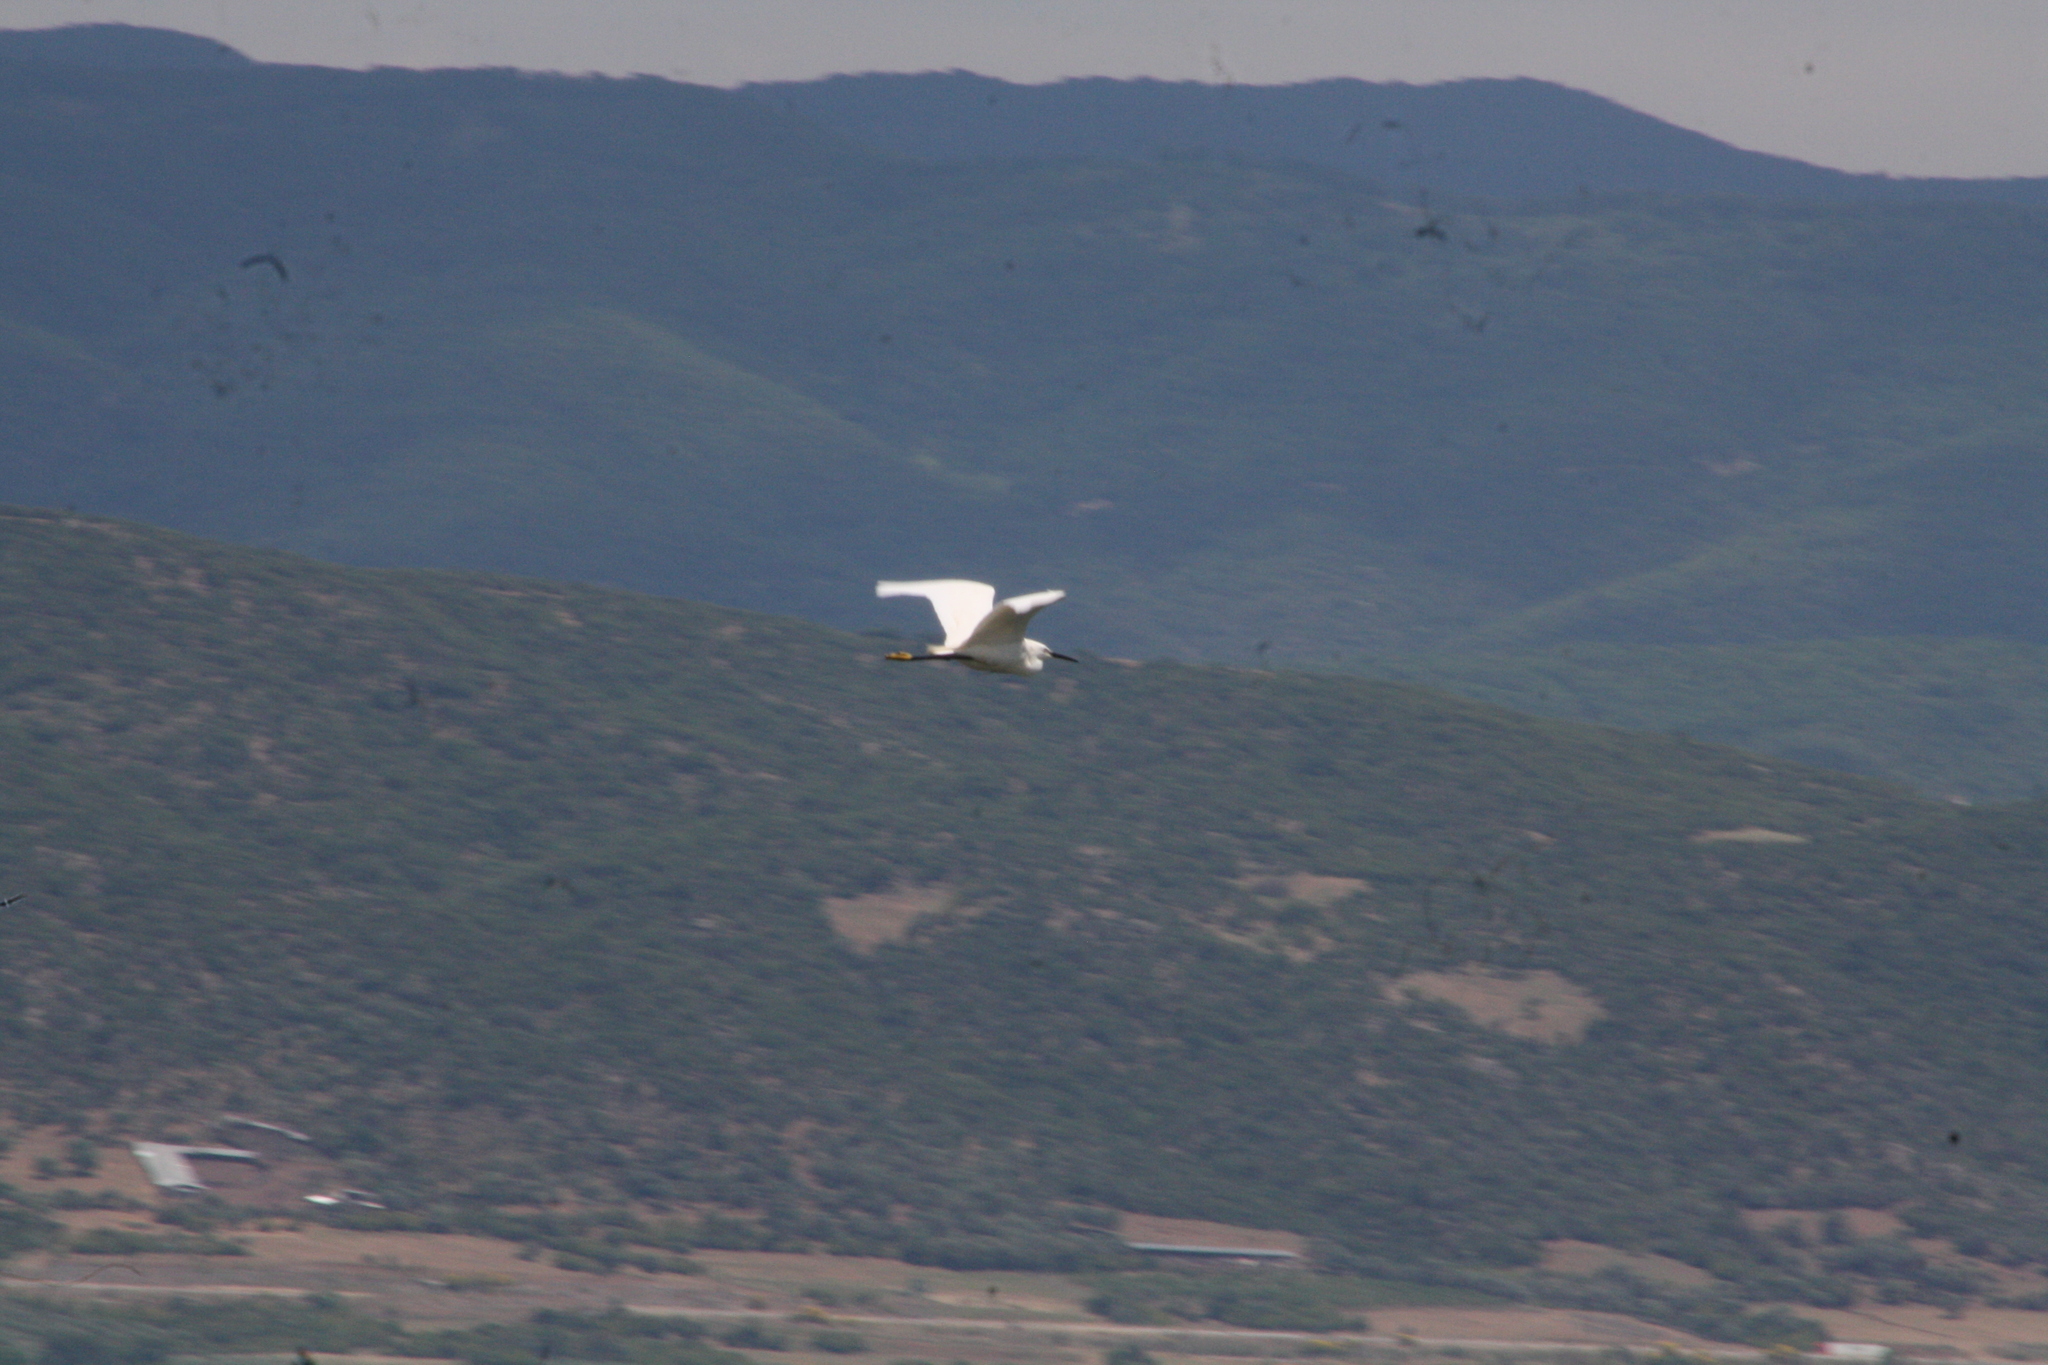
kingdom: Animalia
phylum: Chordata
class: Aves
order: Pelecaniformes
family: Ardeidae
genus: Egretta
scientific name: Egretta garzetta
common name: Little egret
